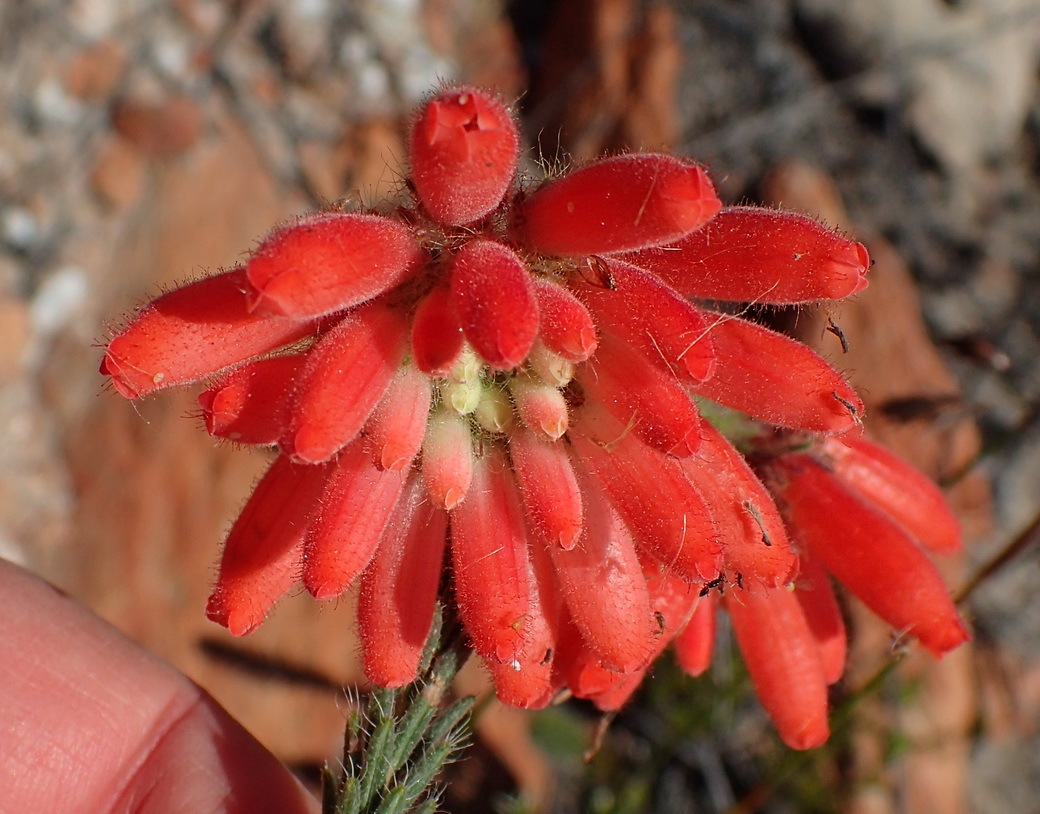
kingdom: Plantae
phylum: Tracheophyta
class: Magnoliopsida
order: Ericales
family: Ericaceae
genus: Erica
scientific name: Erica cerinthoides
